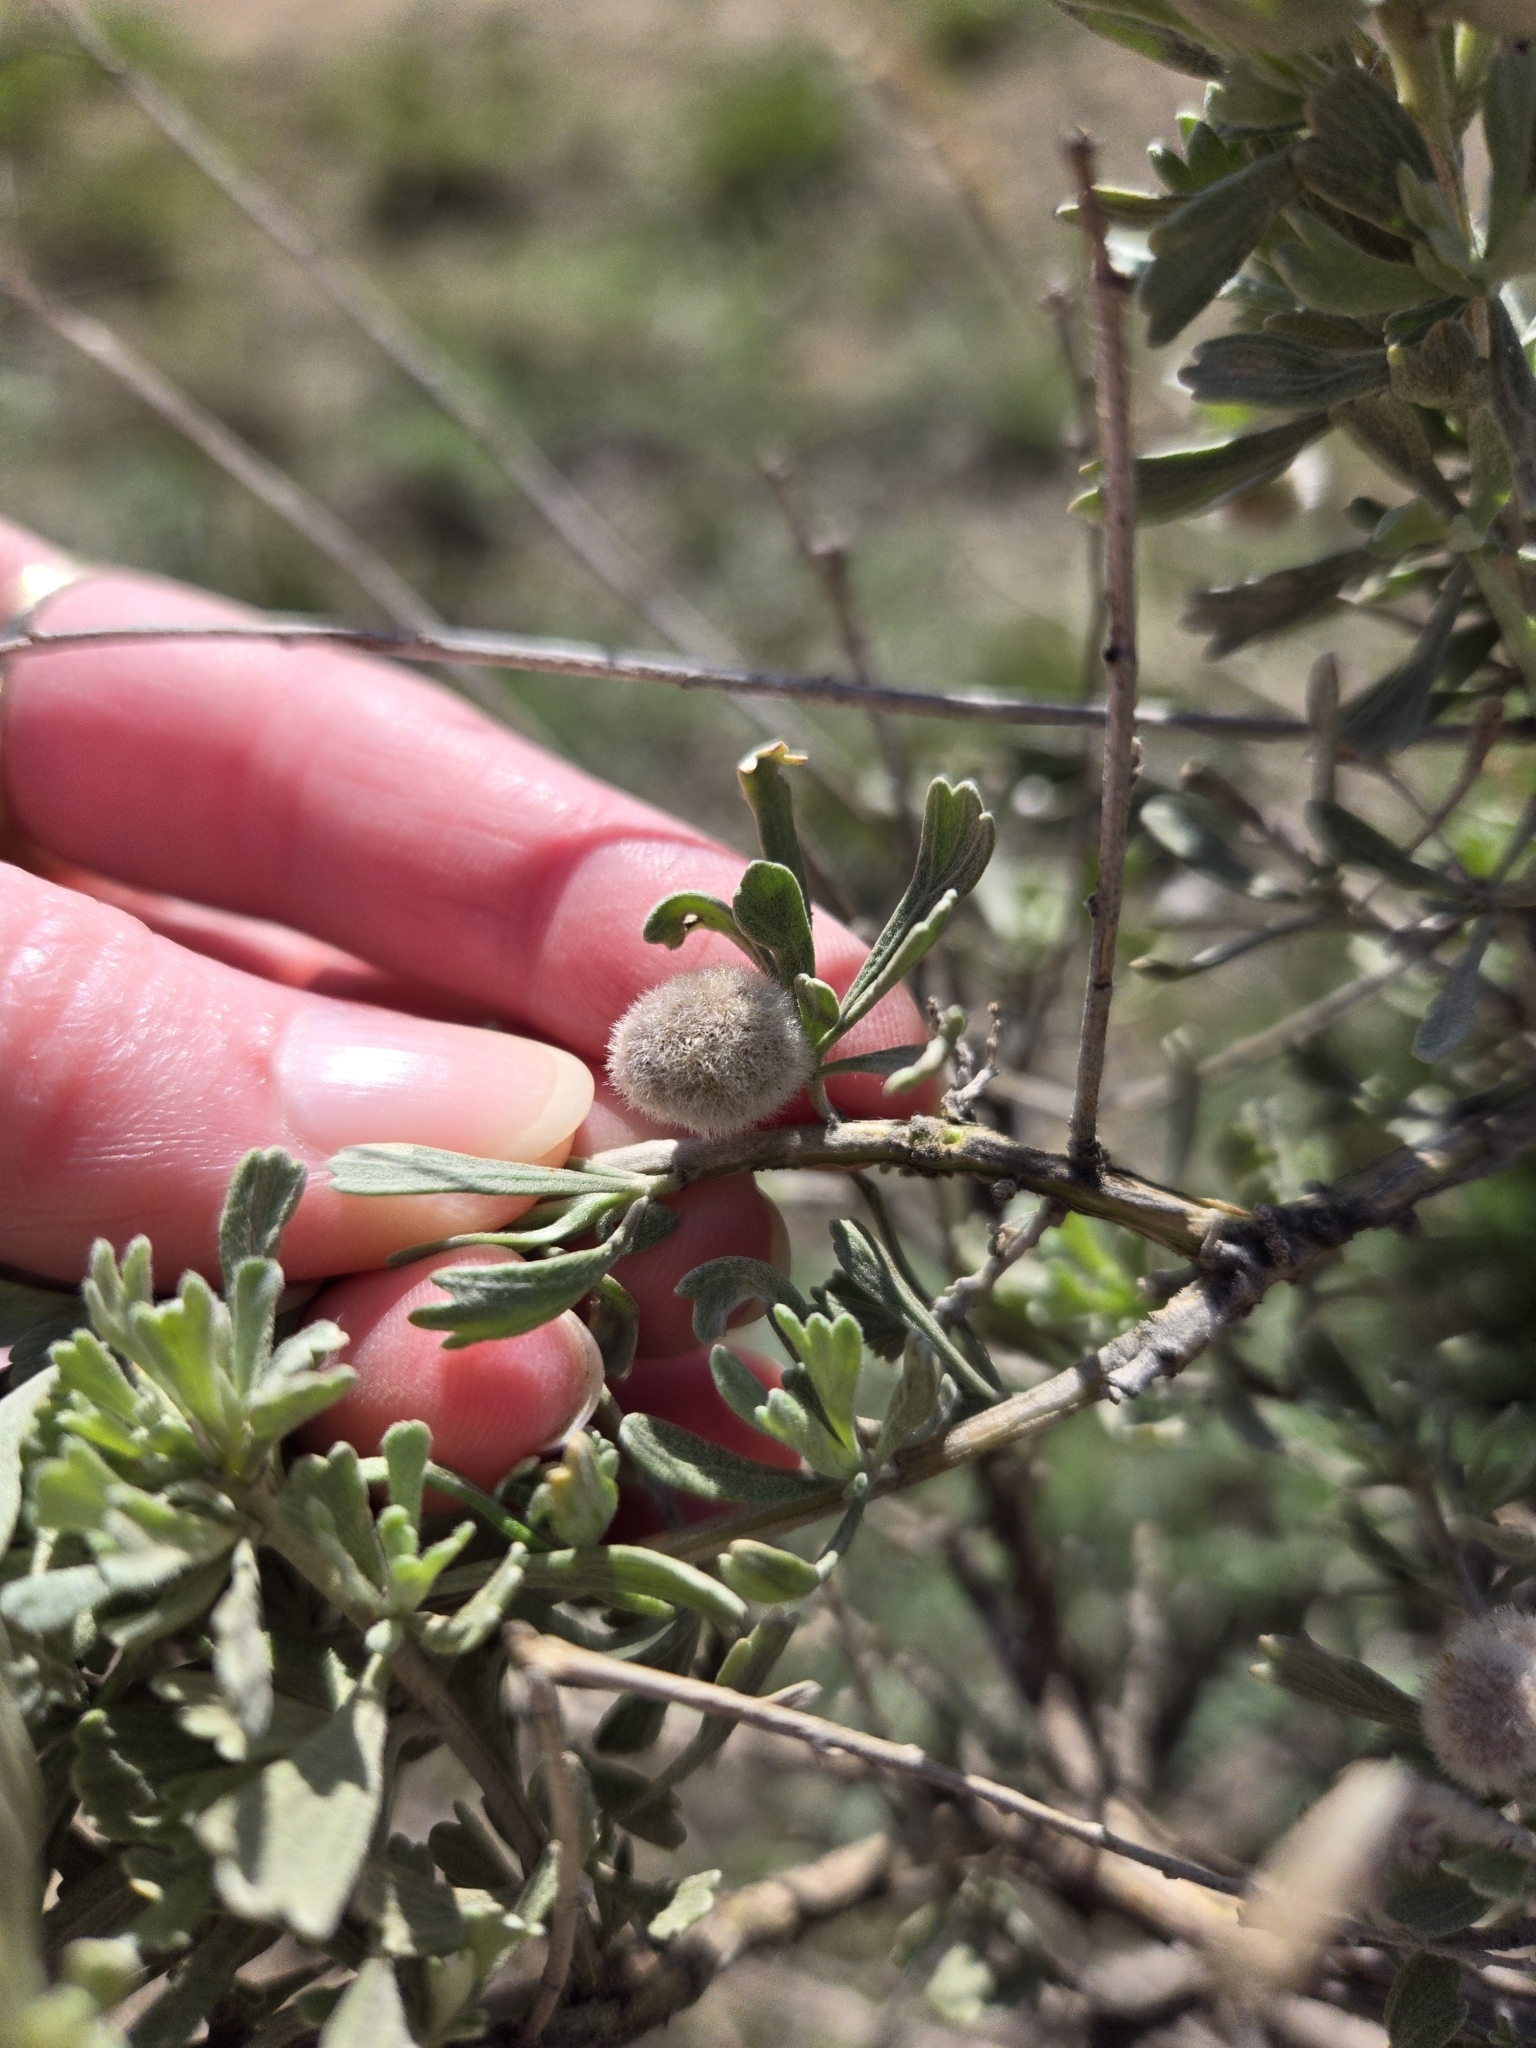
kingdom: Animalia
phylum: Arthropoda
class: Insecta
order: Diptera
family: Cecidomyiidae
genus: Rhopalomyia
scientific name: Rhopalomyia hirtipomum
